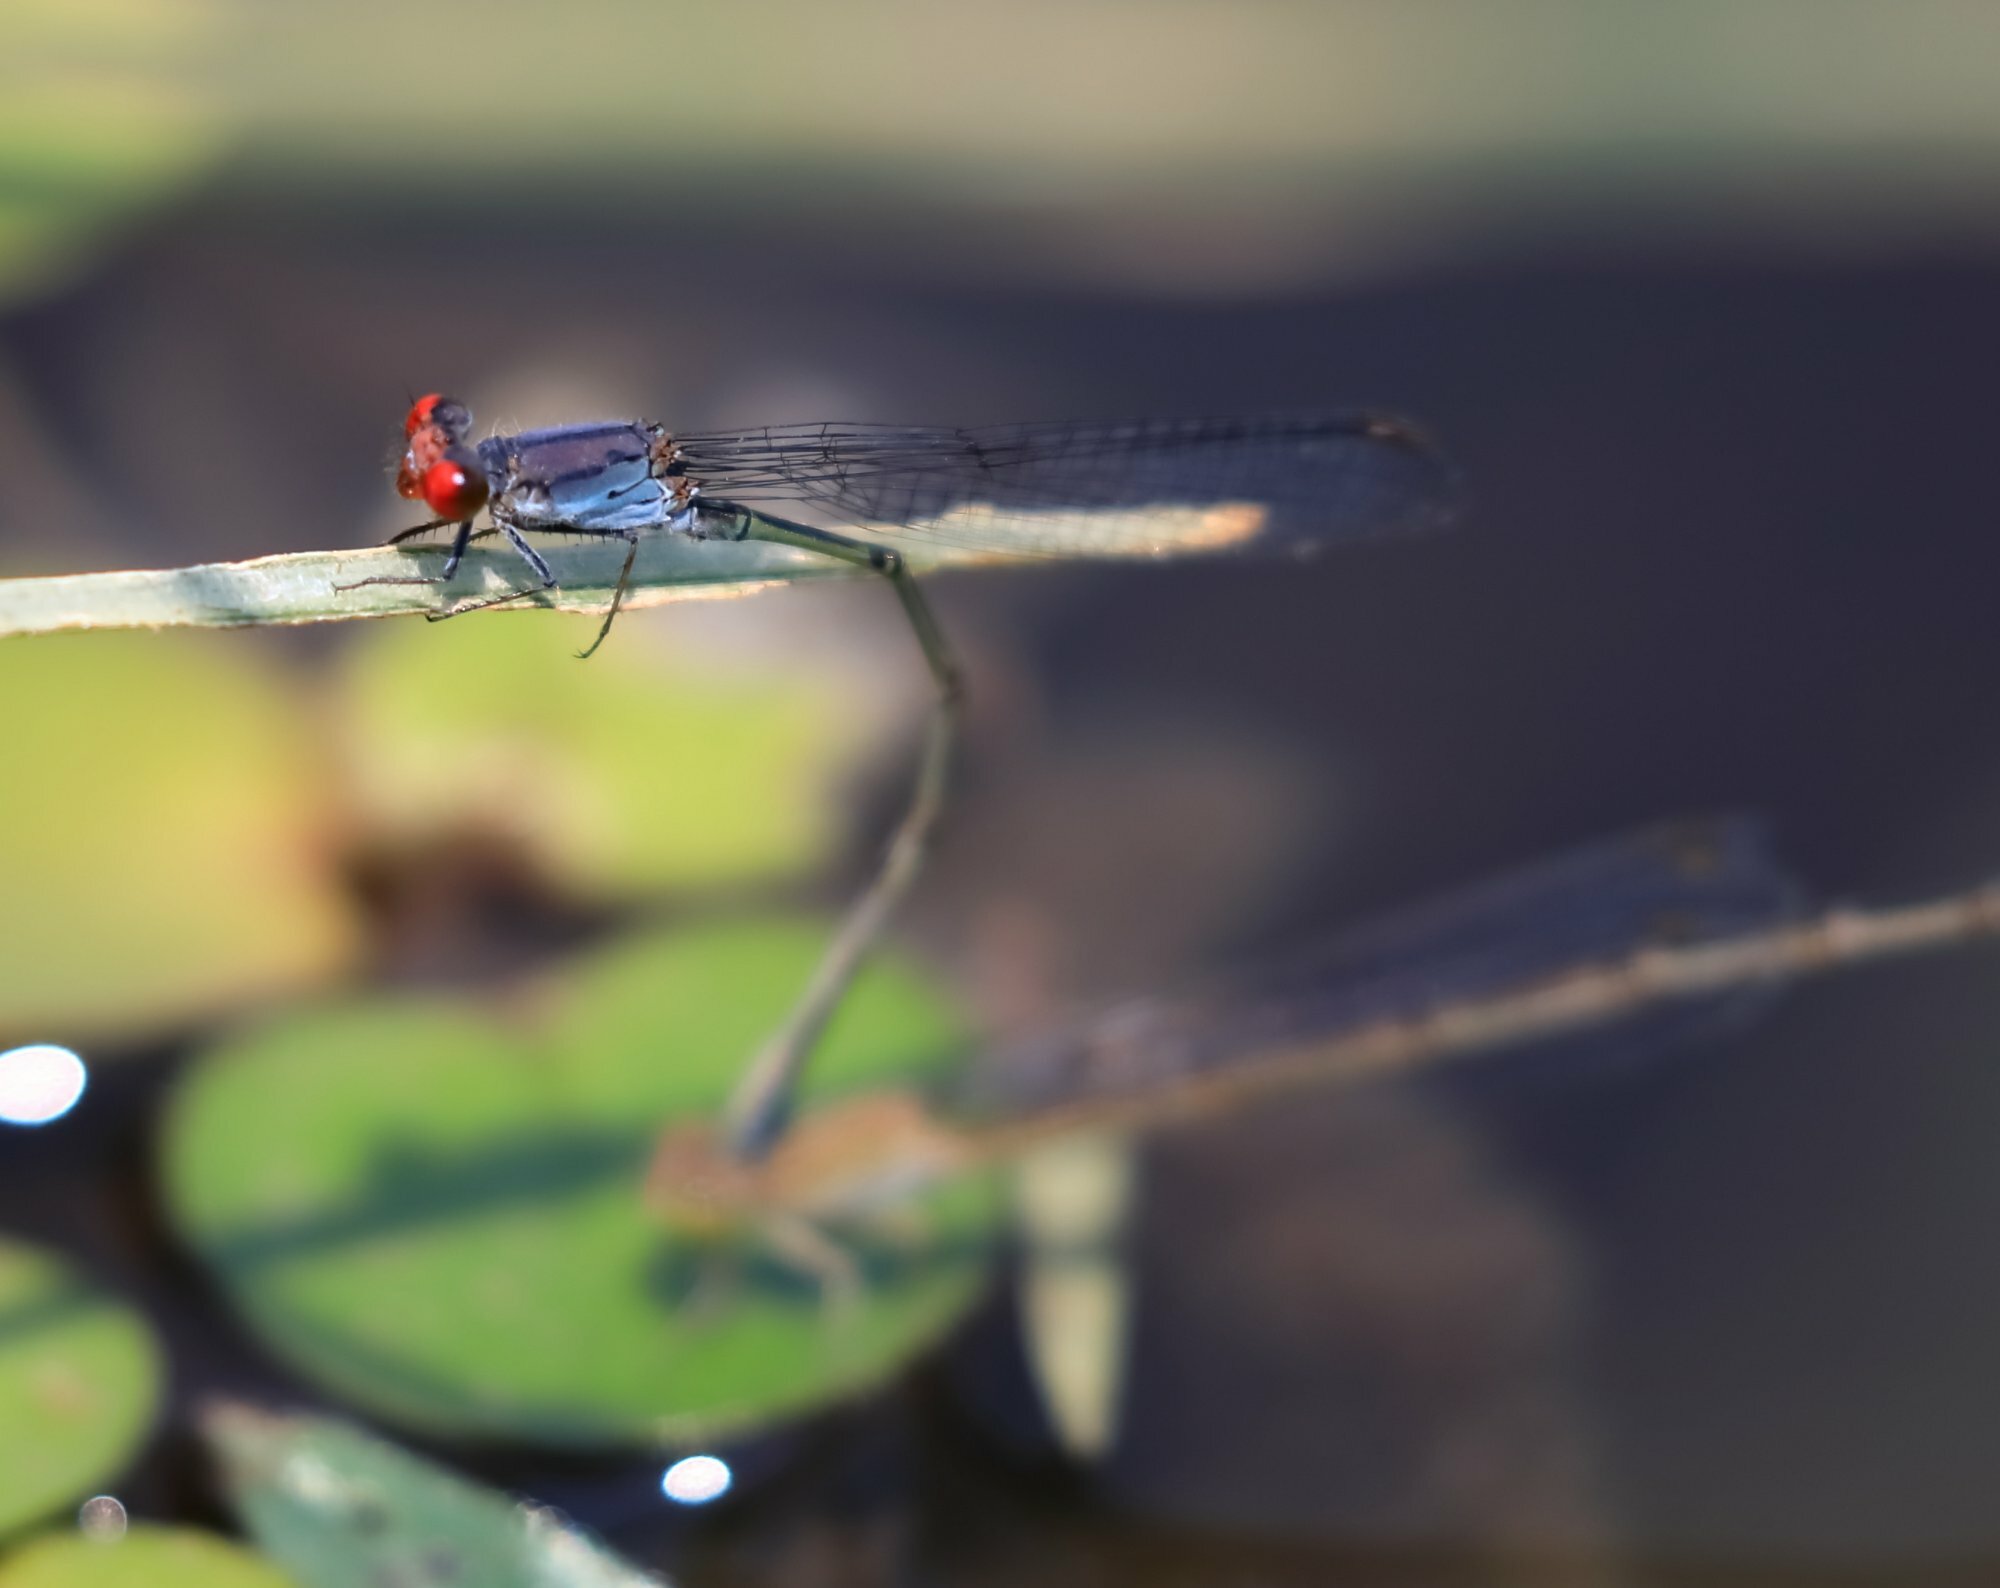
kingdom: Animalia
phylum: Arthropoda
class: Insecta
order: Odonata
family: Coenagrionidae
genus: Pseudagrion
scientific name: Pseudagrion sublacteum
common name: Cherry-eye sprite
